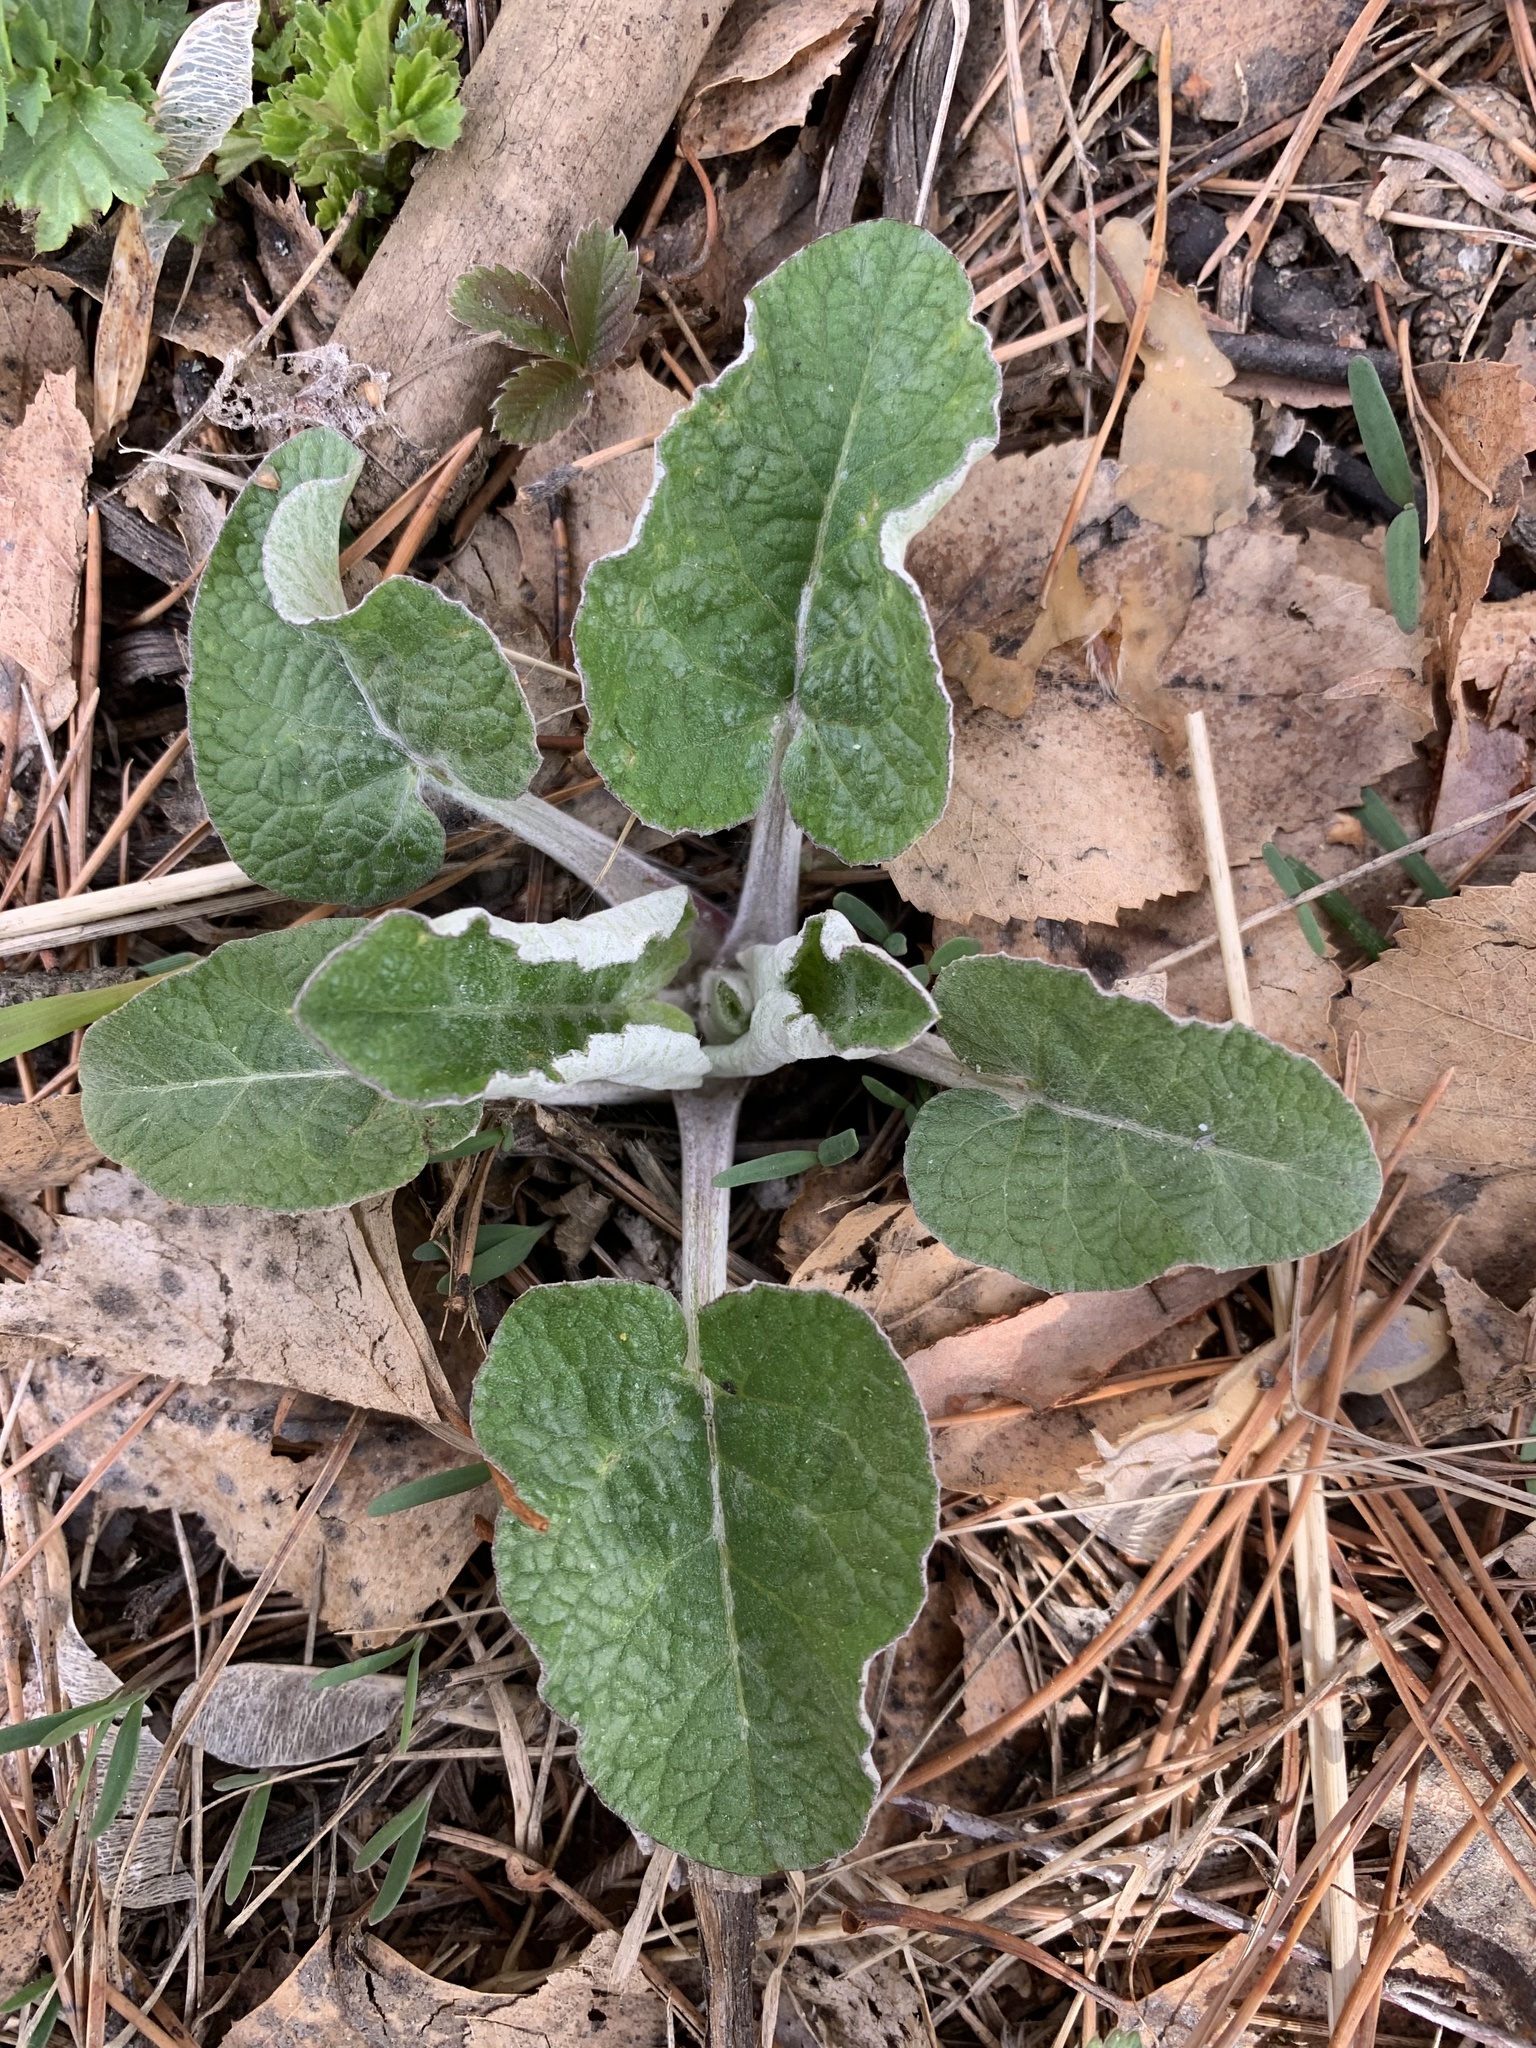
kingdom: Plantae
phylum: Tracheophyta
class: Magnoliopsida
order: Asterales
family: Asteraceae
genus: Arctium
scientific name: Arctium tomentosum
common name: Woolly burdock
